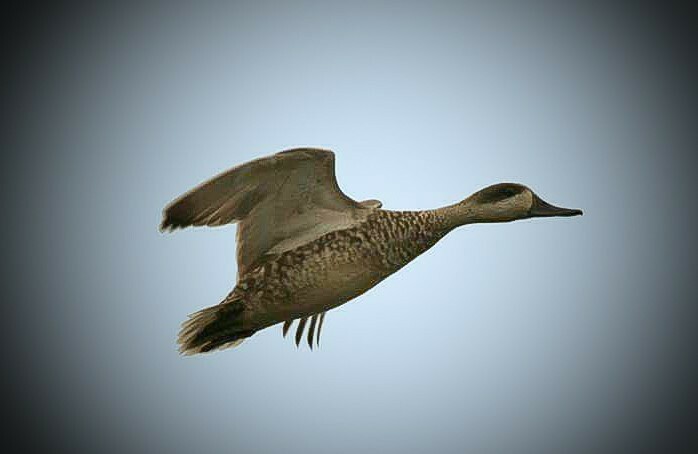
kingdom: Animalia
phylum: Chordata
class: Aves
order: Anseriformes
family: Anatidae
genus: Marmaronetta
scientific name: Marmaronetta angustirostris
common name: Marbled duck
